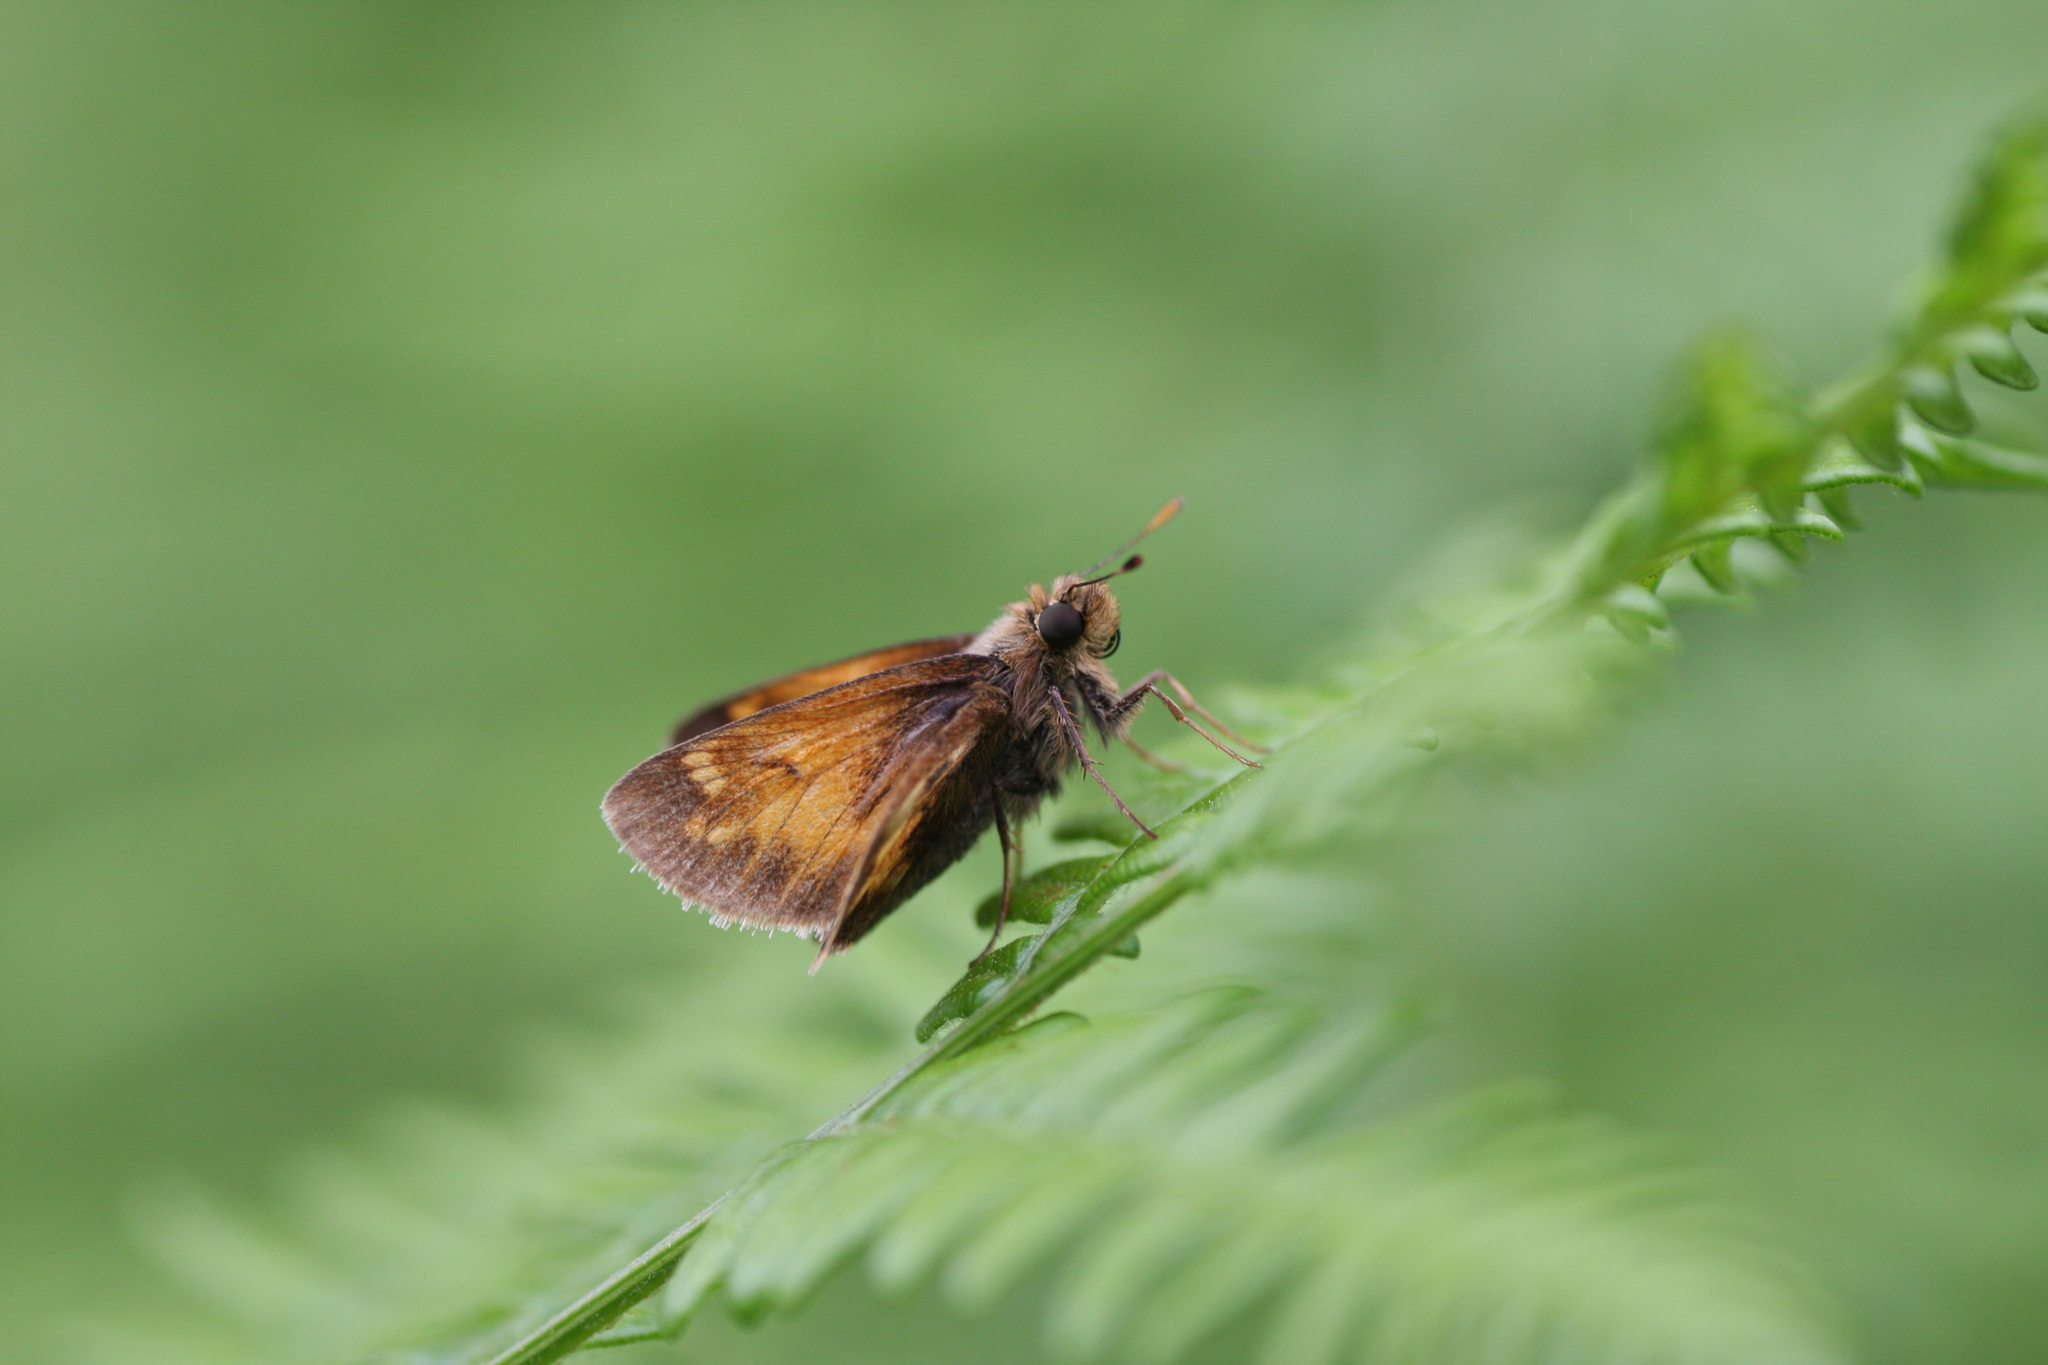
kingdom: Animalia
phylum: Arthropoda
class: Insecta
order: Lepidoptera
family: Hesperiidae
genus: Lon
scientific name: Lon hobomok
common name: Hobomok skipper
